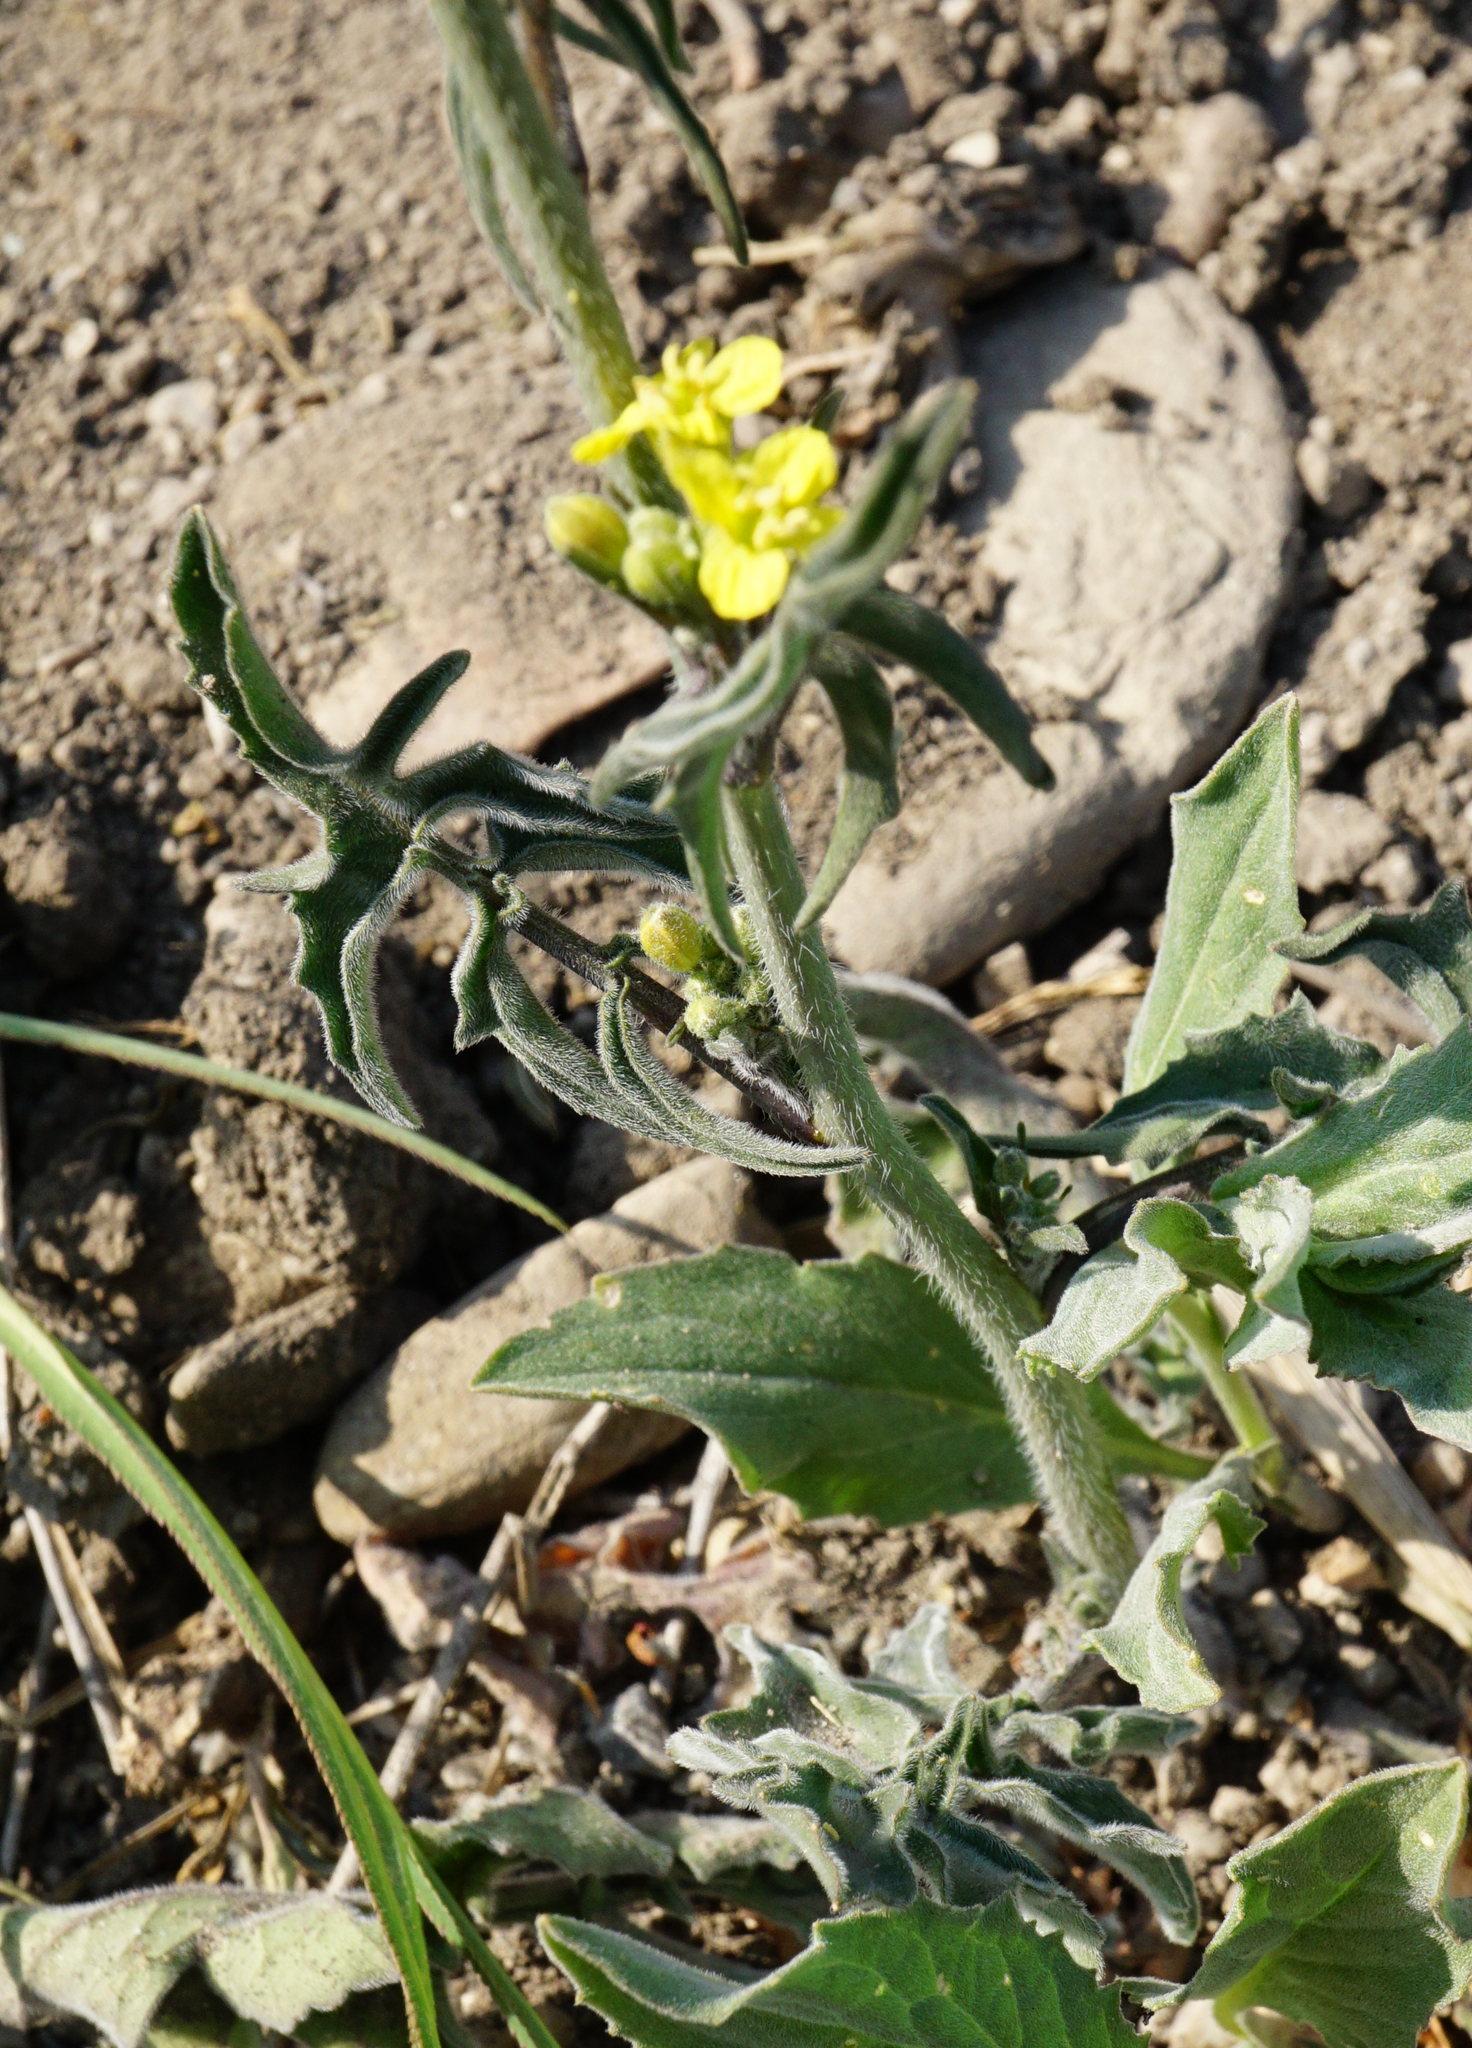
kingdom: Plantae
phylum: Tracheophyta
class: Magnoliopsida
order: Brassicales
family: Brassicaceae
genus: Sisymbrium
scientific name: Sisymbrium orientale
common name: Eastern rocket
